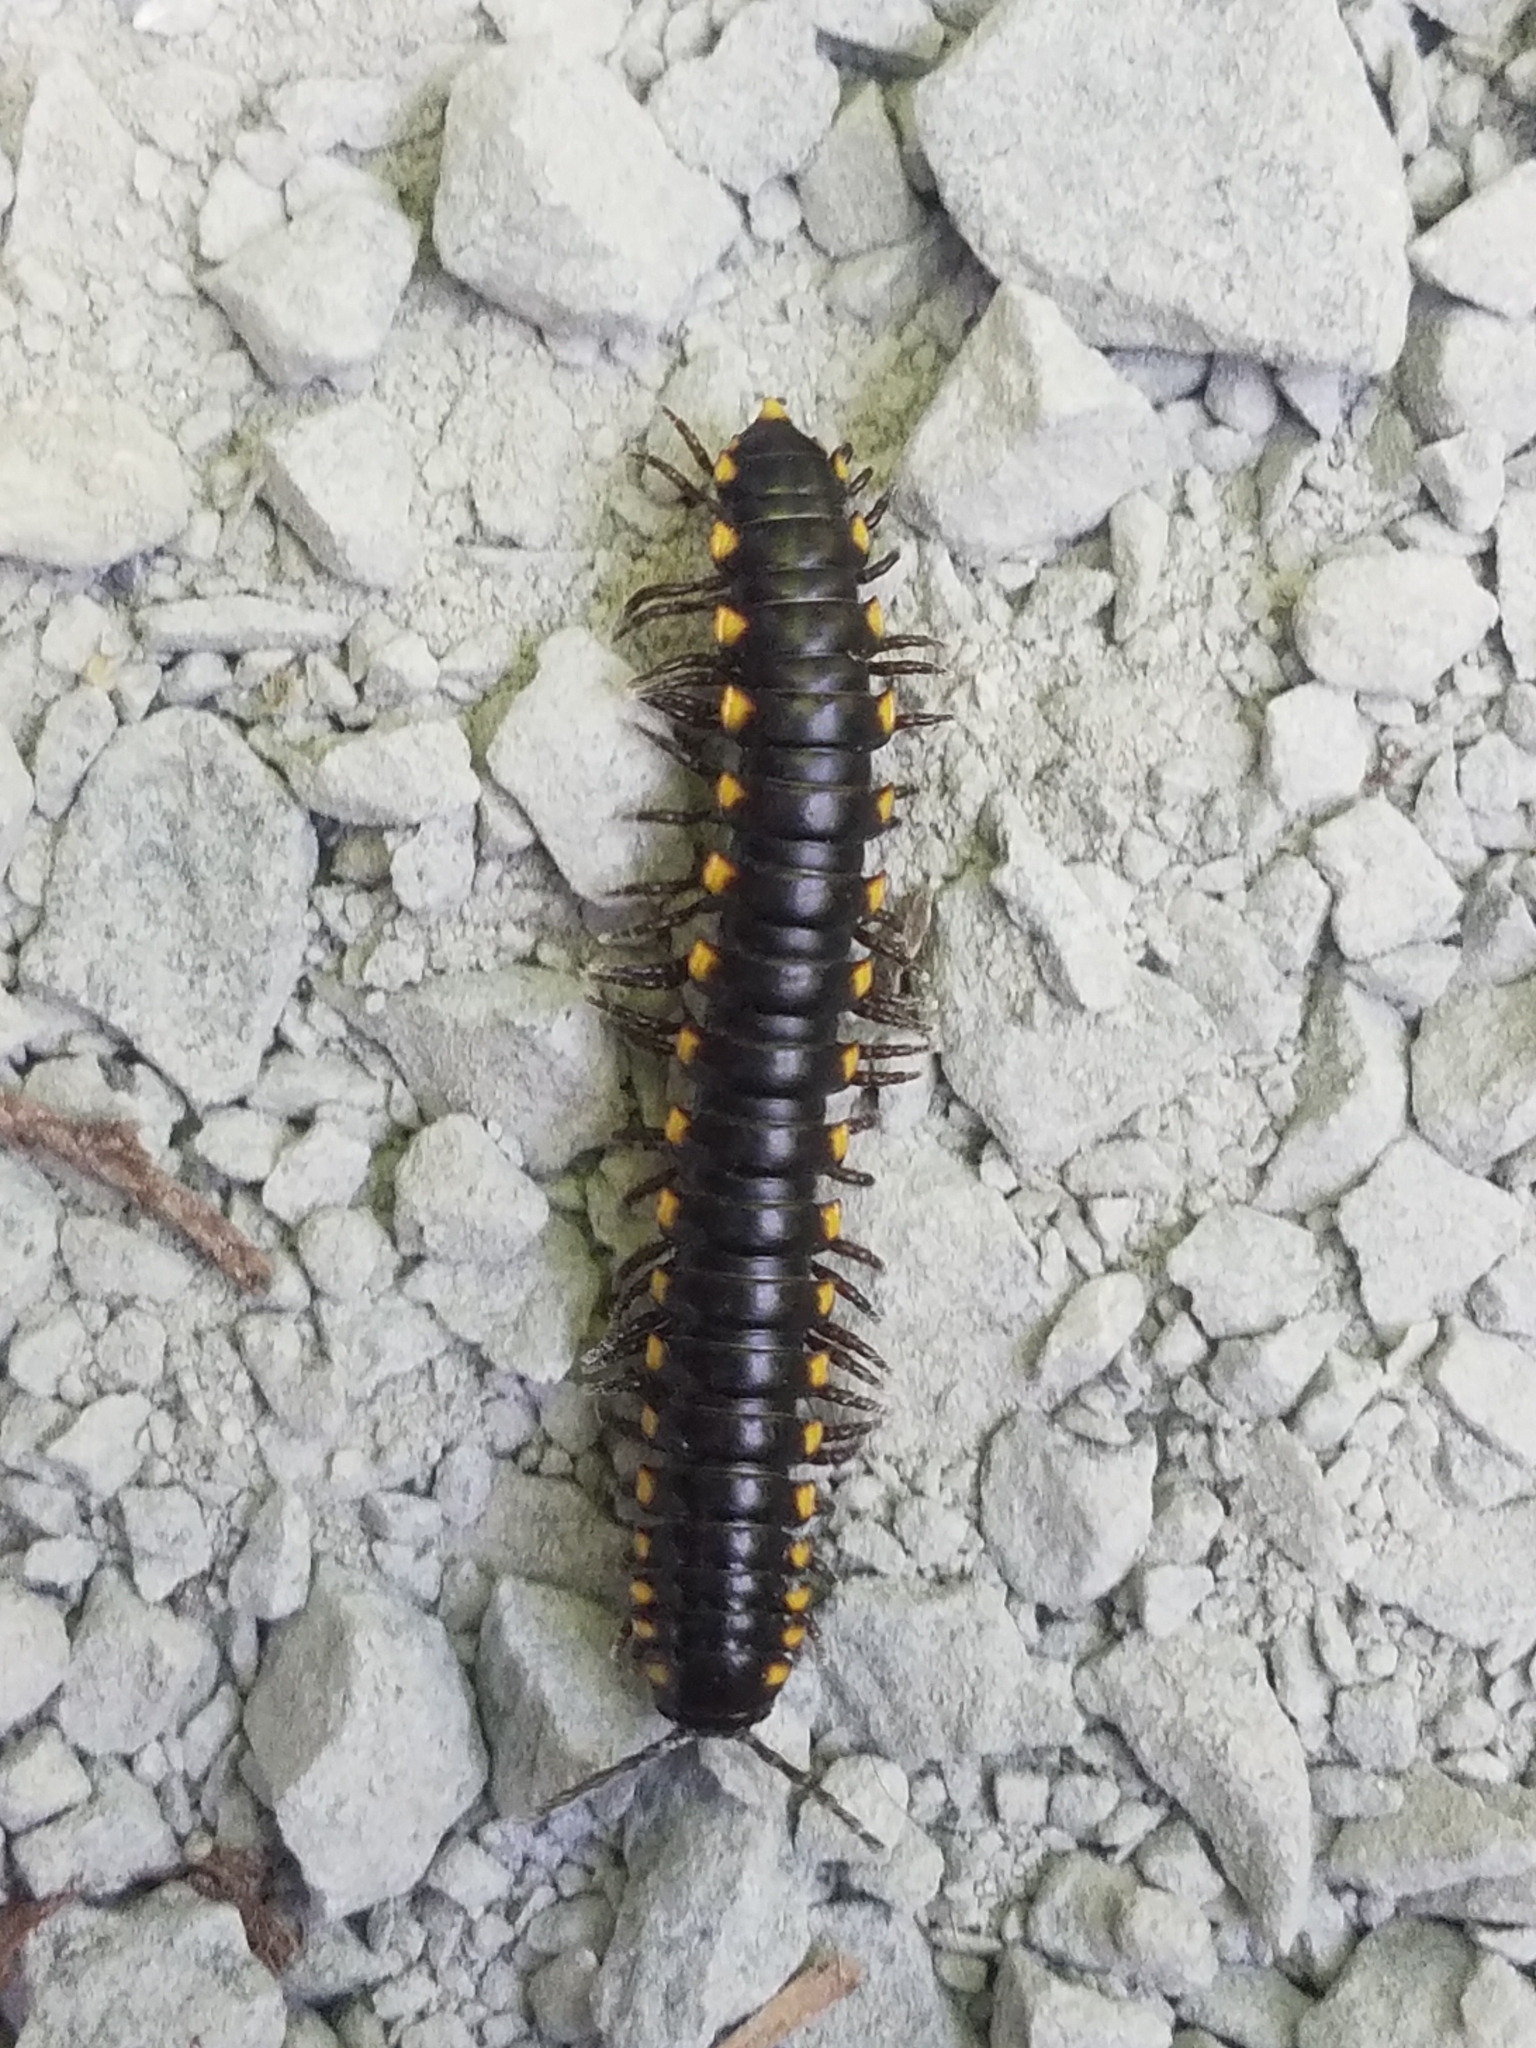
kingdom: Animalia
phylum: Arthropoda
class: Diplopoda
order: Polydesmida
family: Xystodesmidae
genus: Harpaphe
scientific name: Harpaphe haydeniana
